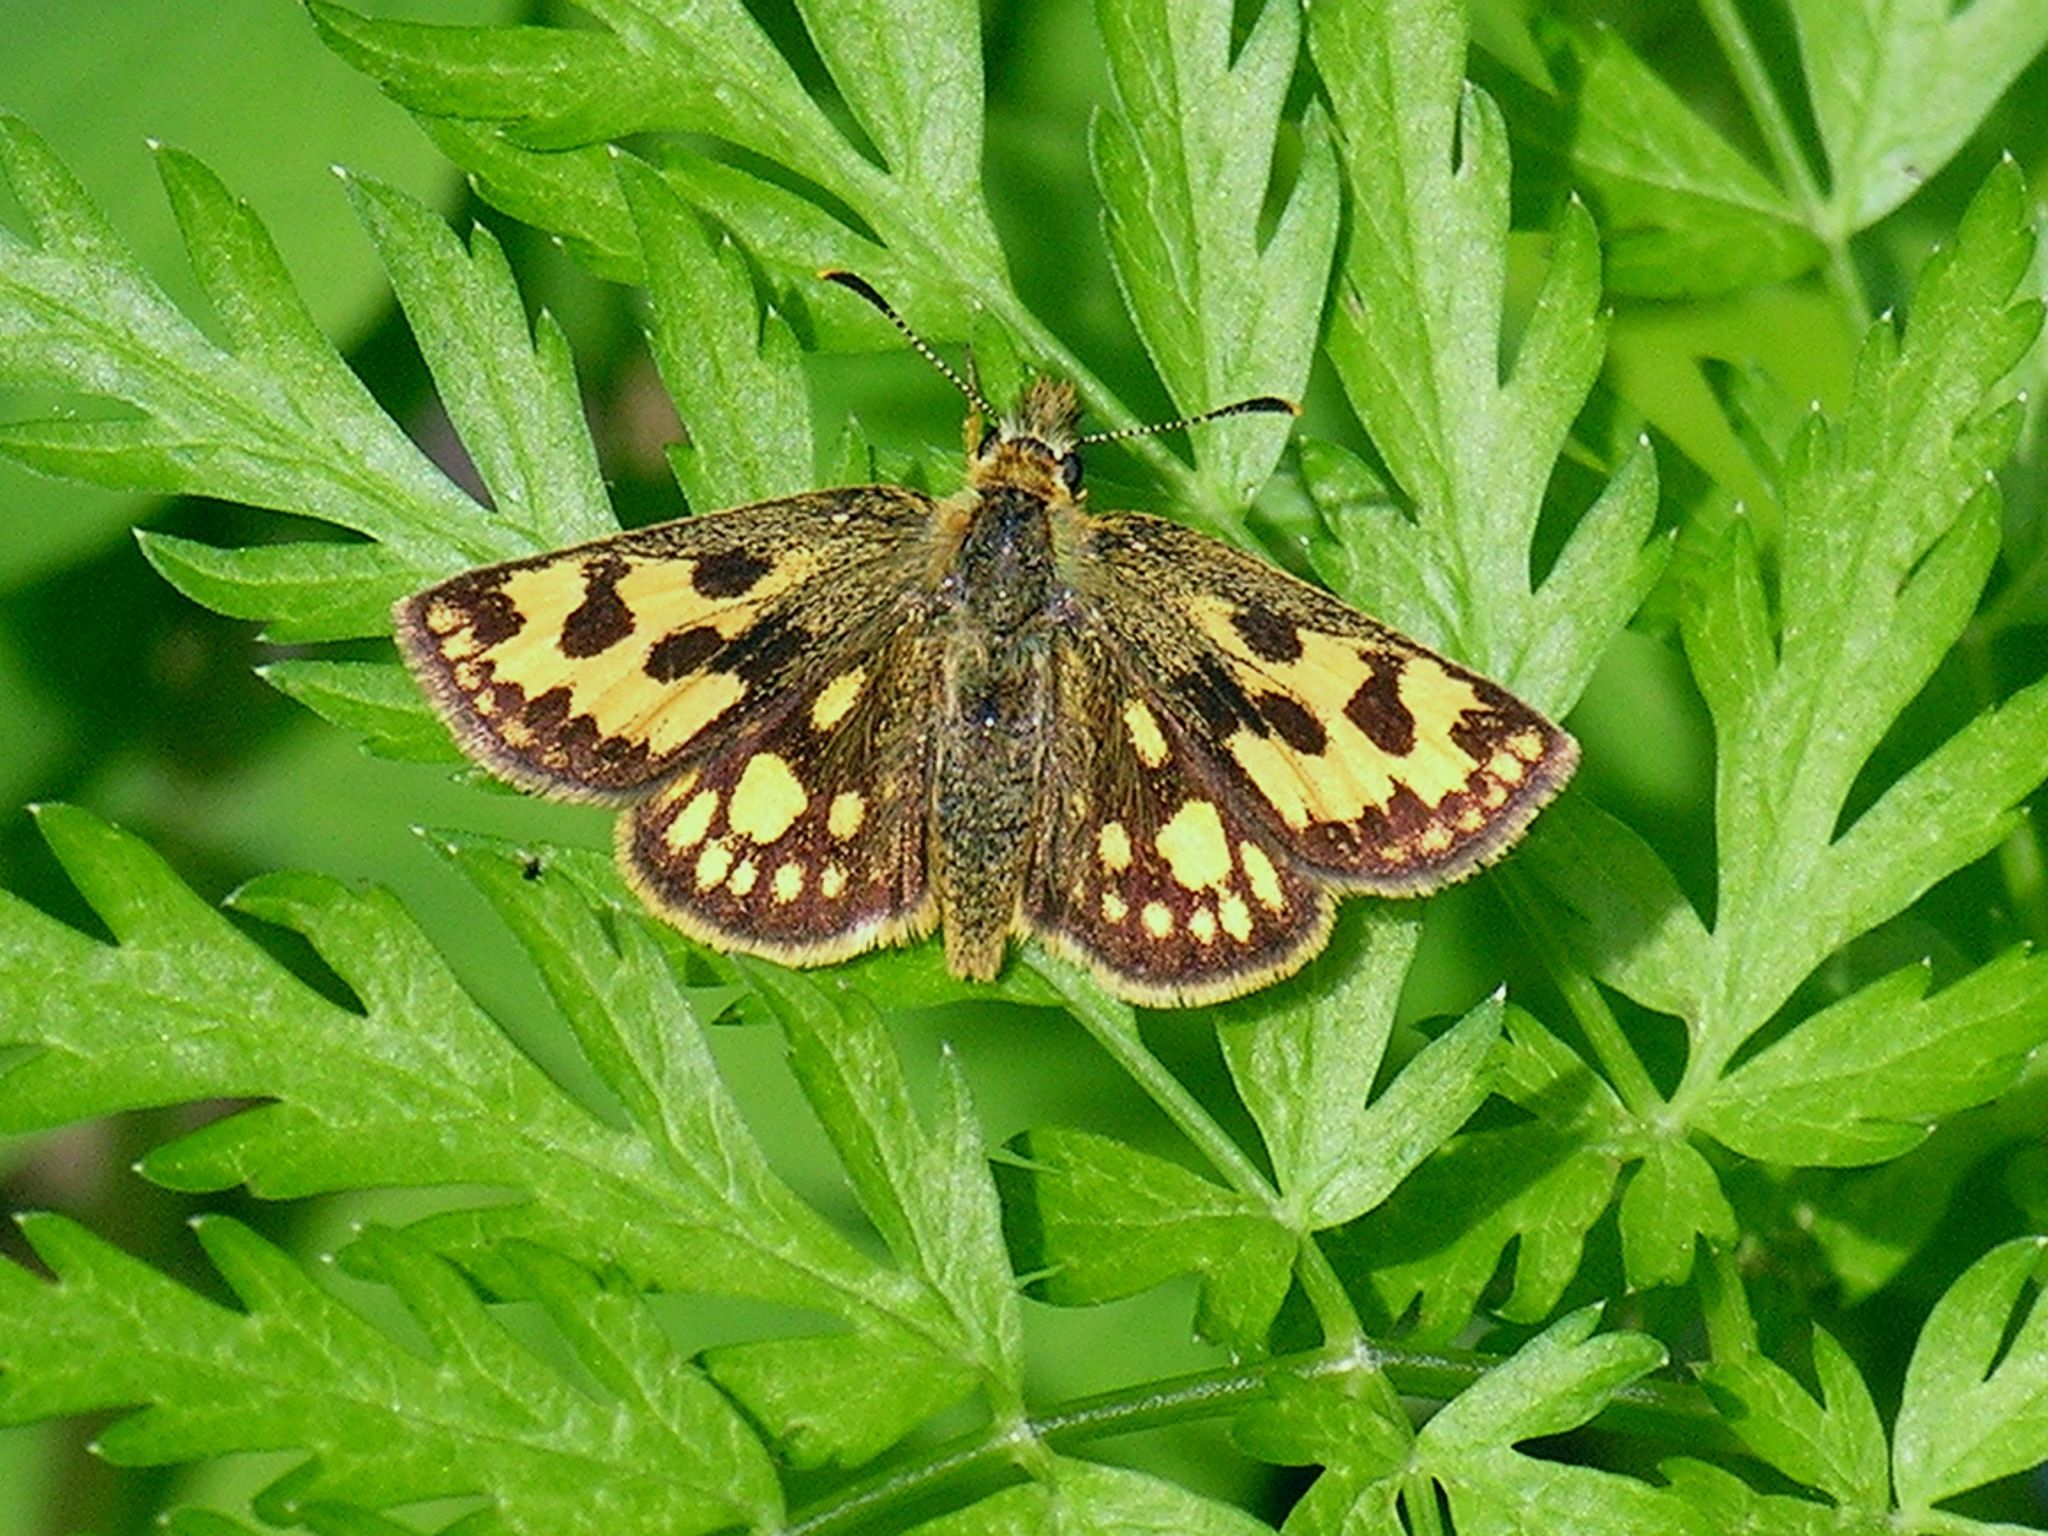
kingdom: Animalia
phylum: Arthropoda
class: Insecta
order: Lepidoptera
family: Hesperiidae
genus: Carterocephalus
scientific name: Carterocephalus silvicola
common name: Northern chequered skipper
